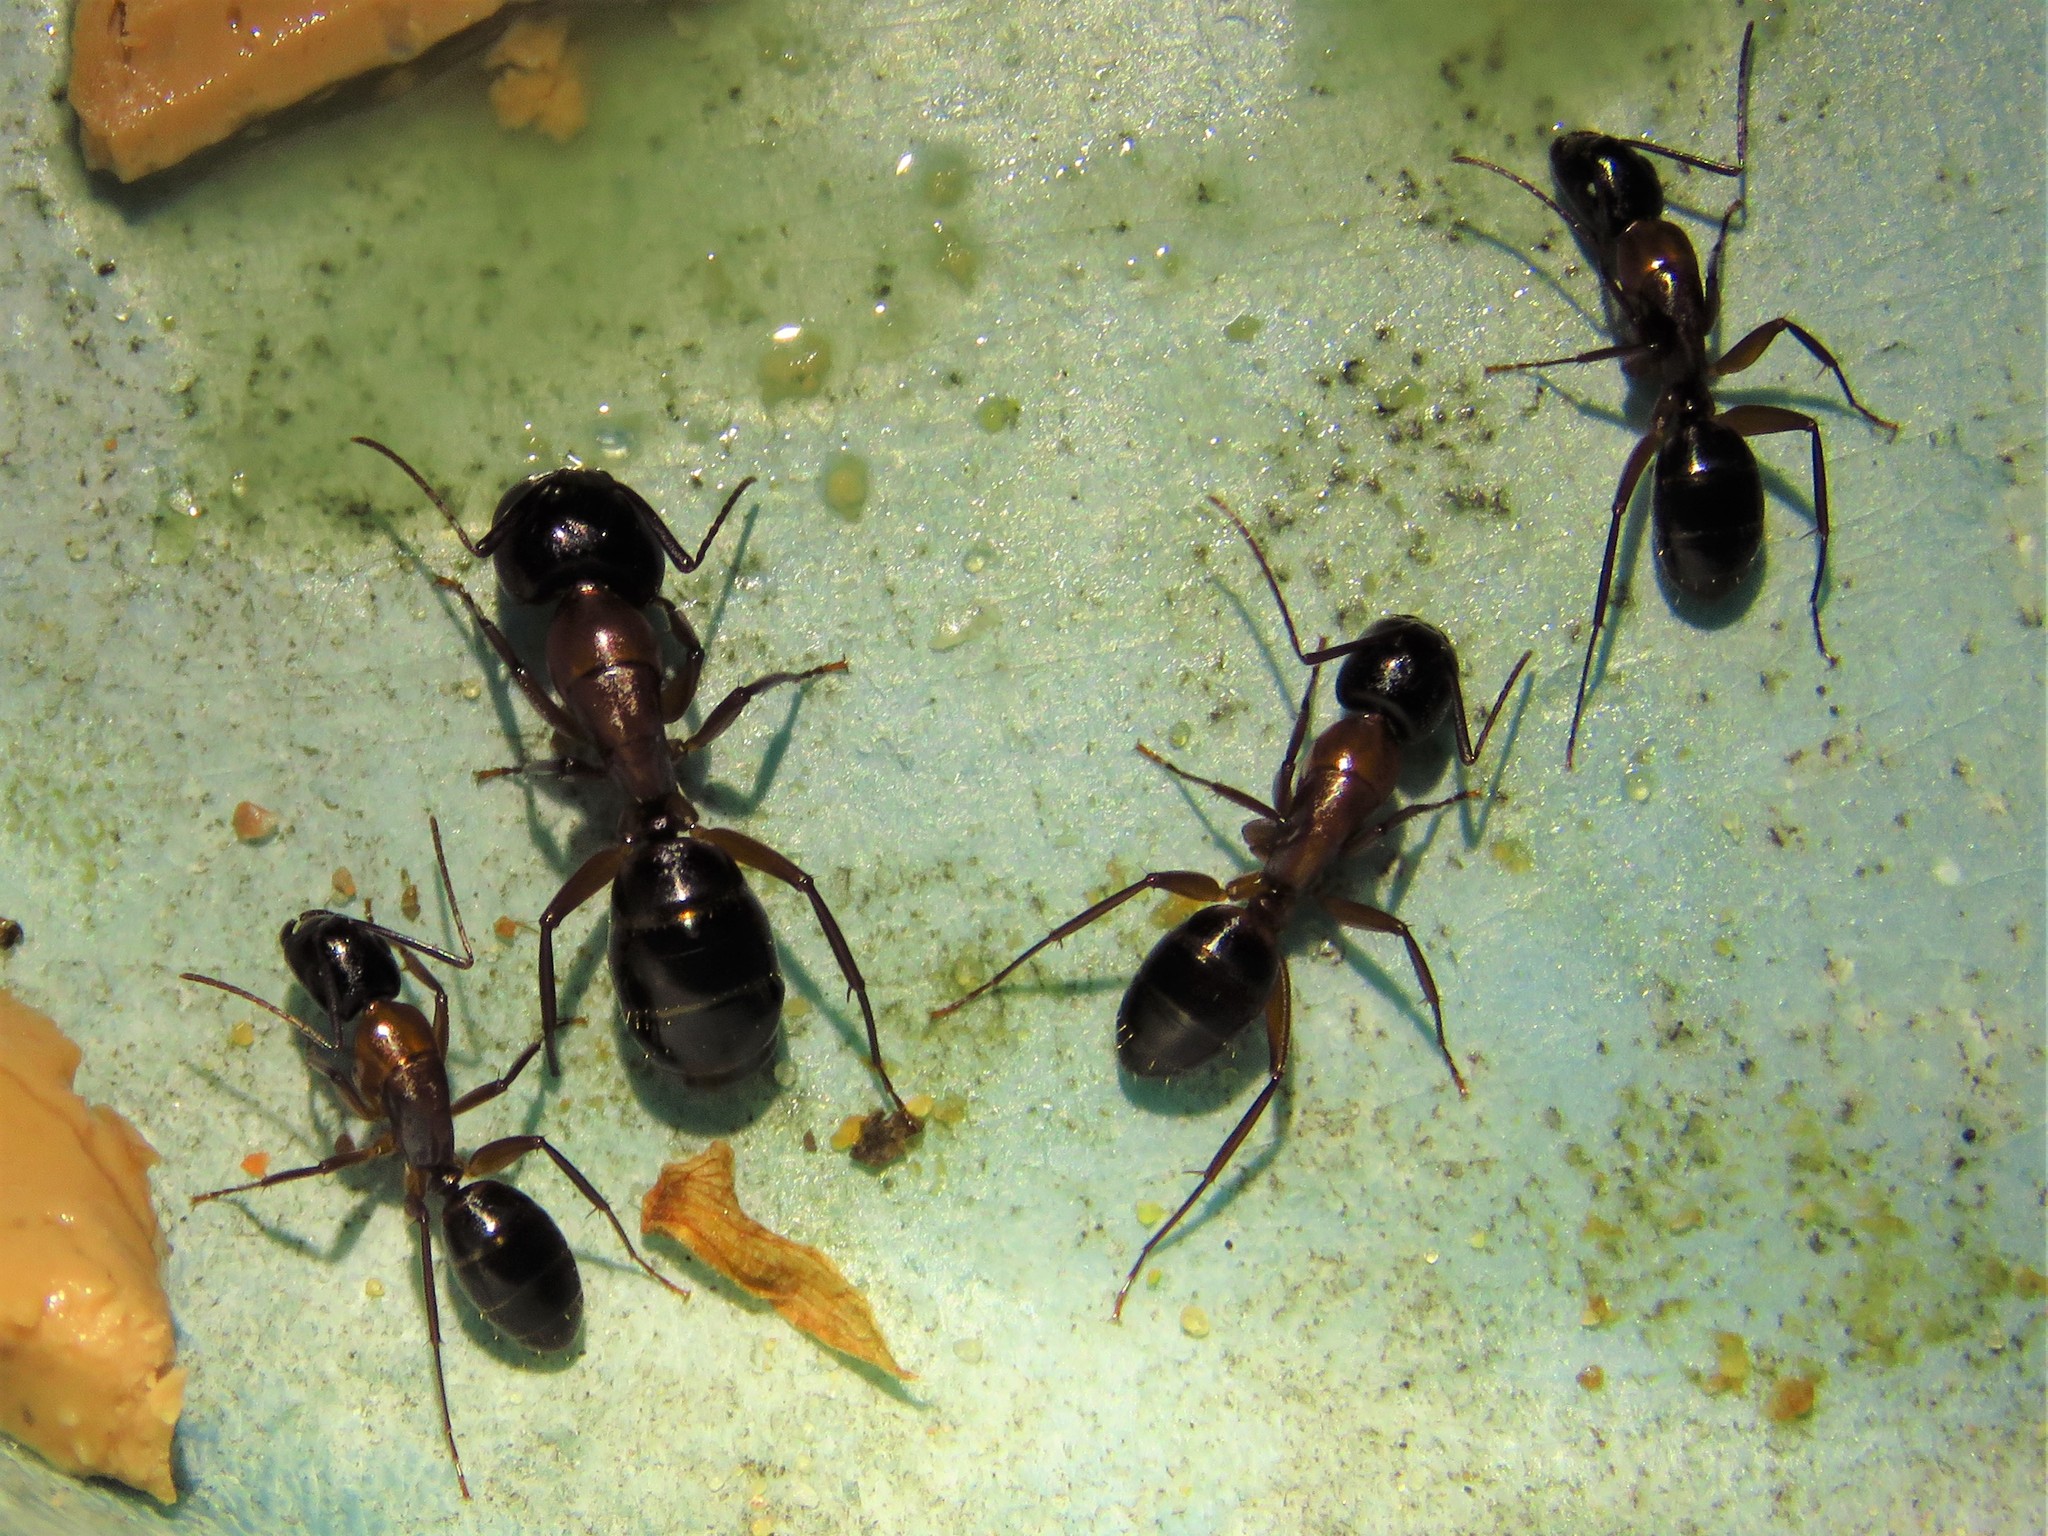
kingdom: Animalia
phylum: Arthropoda
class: Insecta
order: Hymenoptera
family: Formicidae
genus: Camponotus
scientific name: Camponotus texanus
